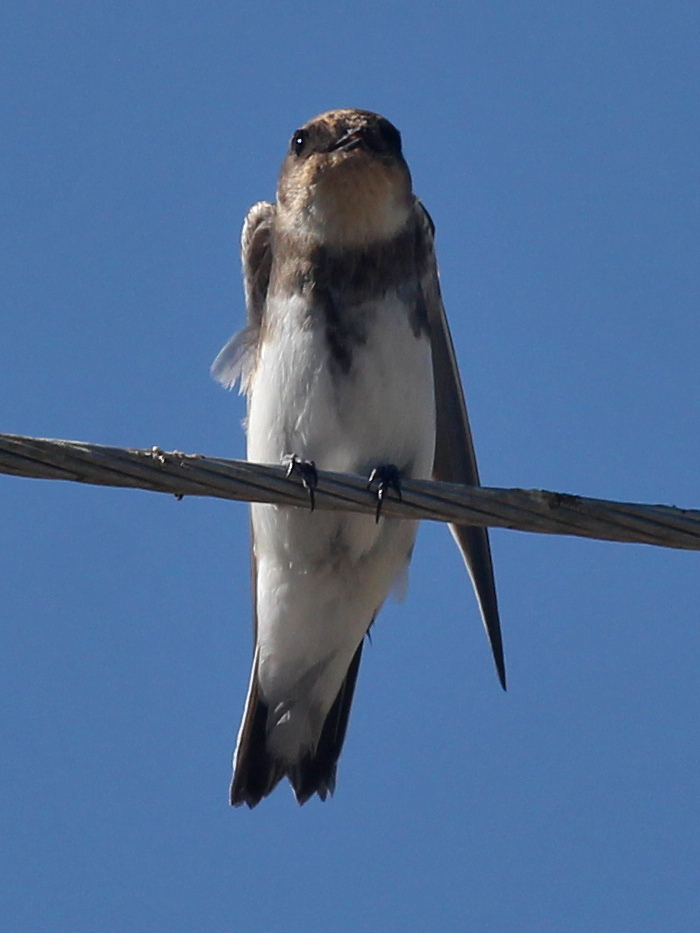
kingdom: Animalia
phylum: Chordata
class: Aves
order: Passeriformes
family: Hirundinidae
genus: Riparia
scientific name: Riparia riparia
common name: Sand martin
